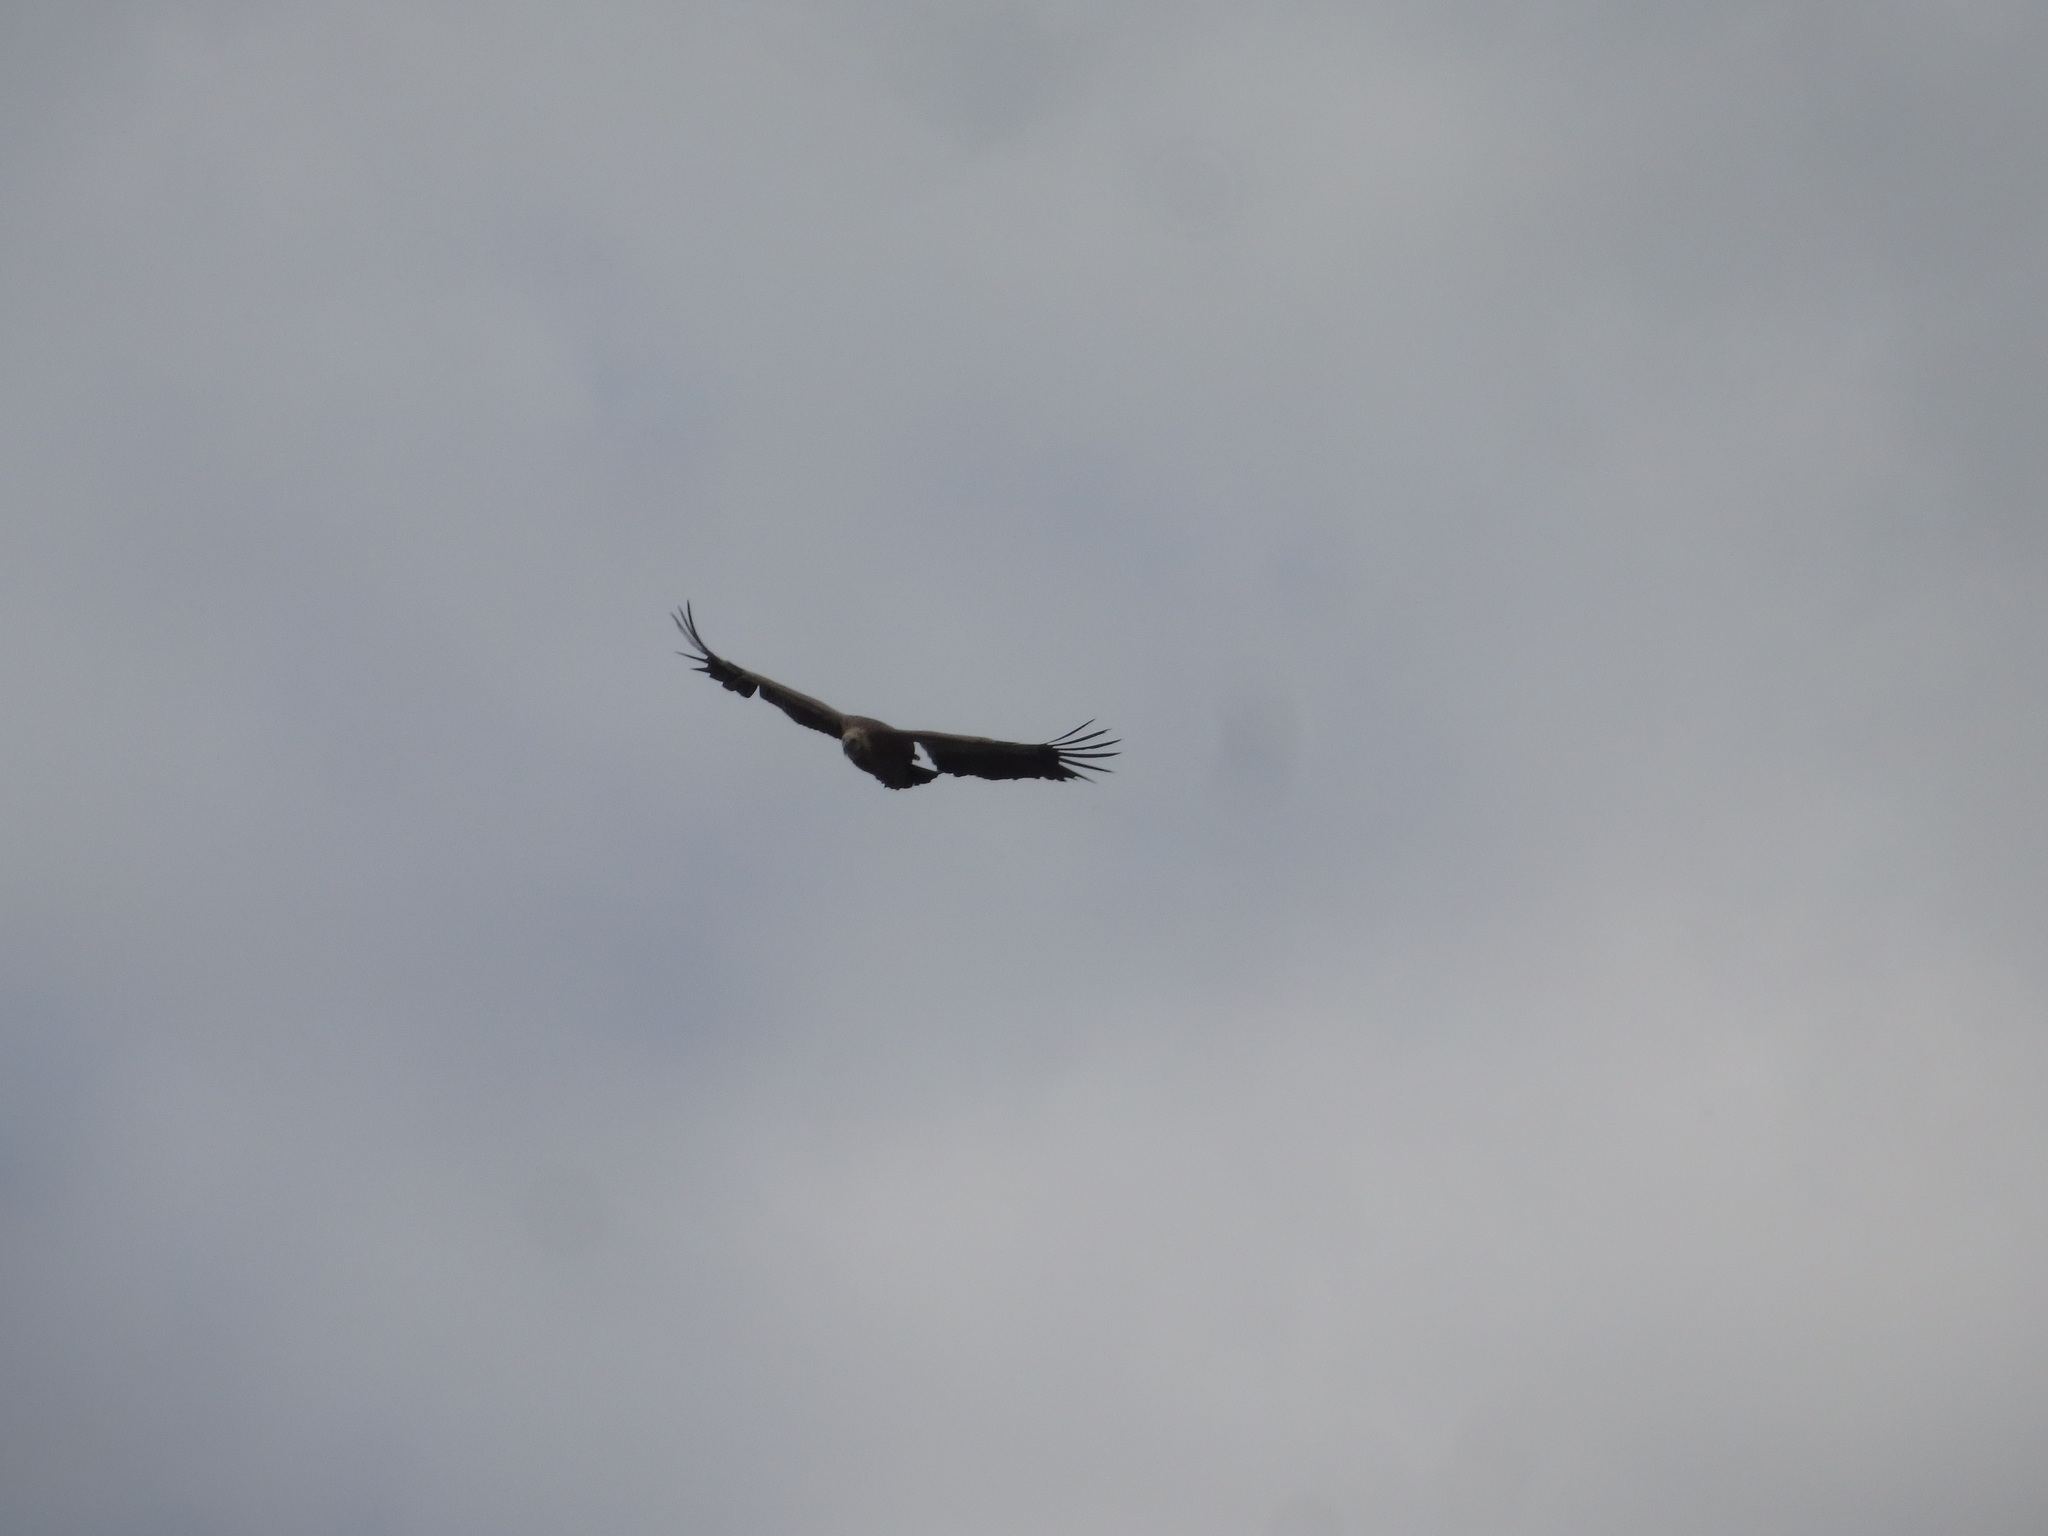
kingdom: Animalia
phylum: Chordata
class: Aves
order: Accipitriformes
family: Accipitridae
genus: Gyps
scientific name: Gyps fulvus
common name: Griffon vulture
